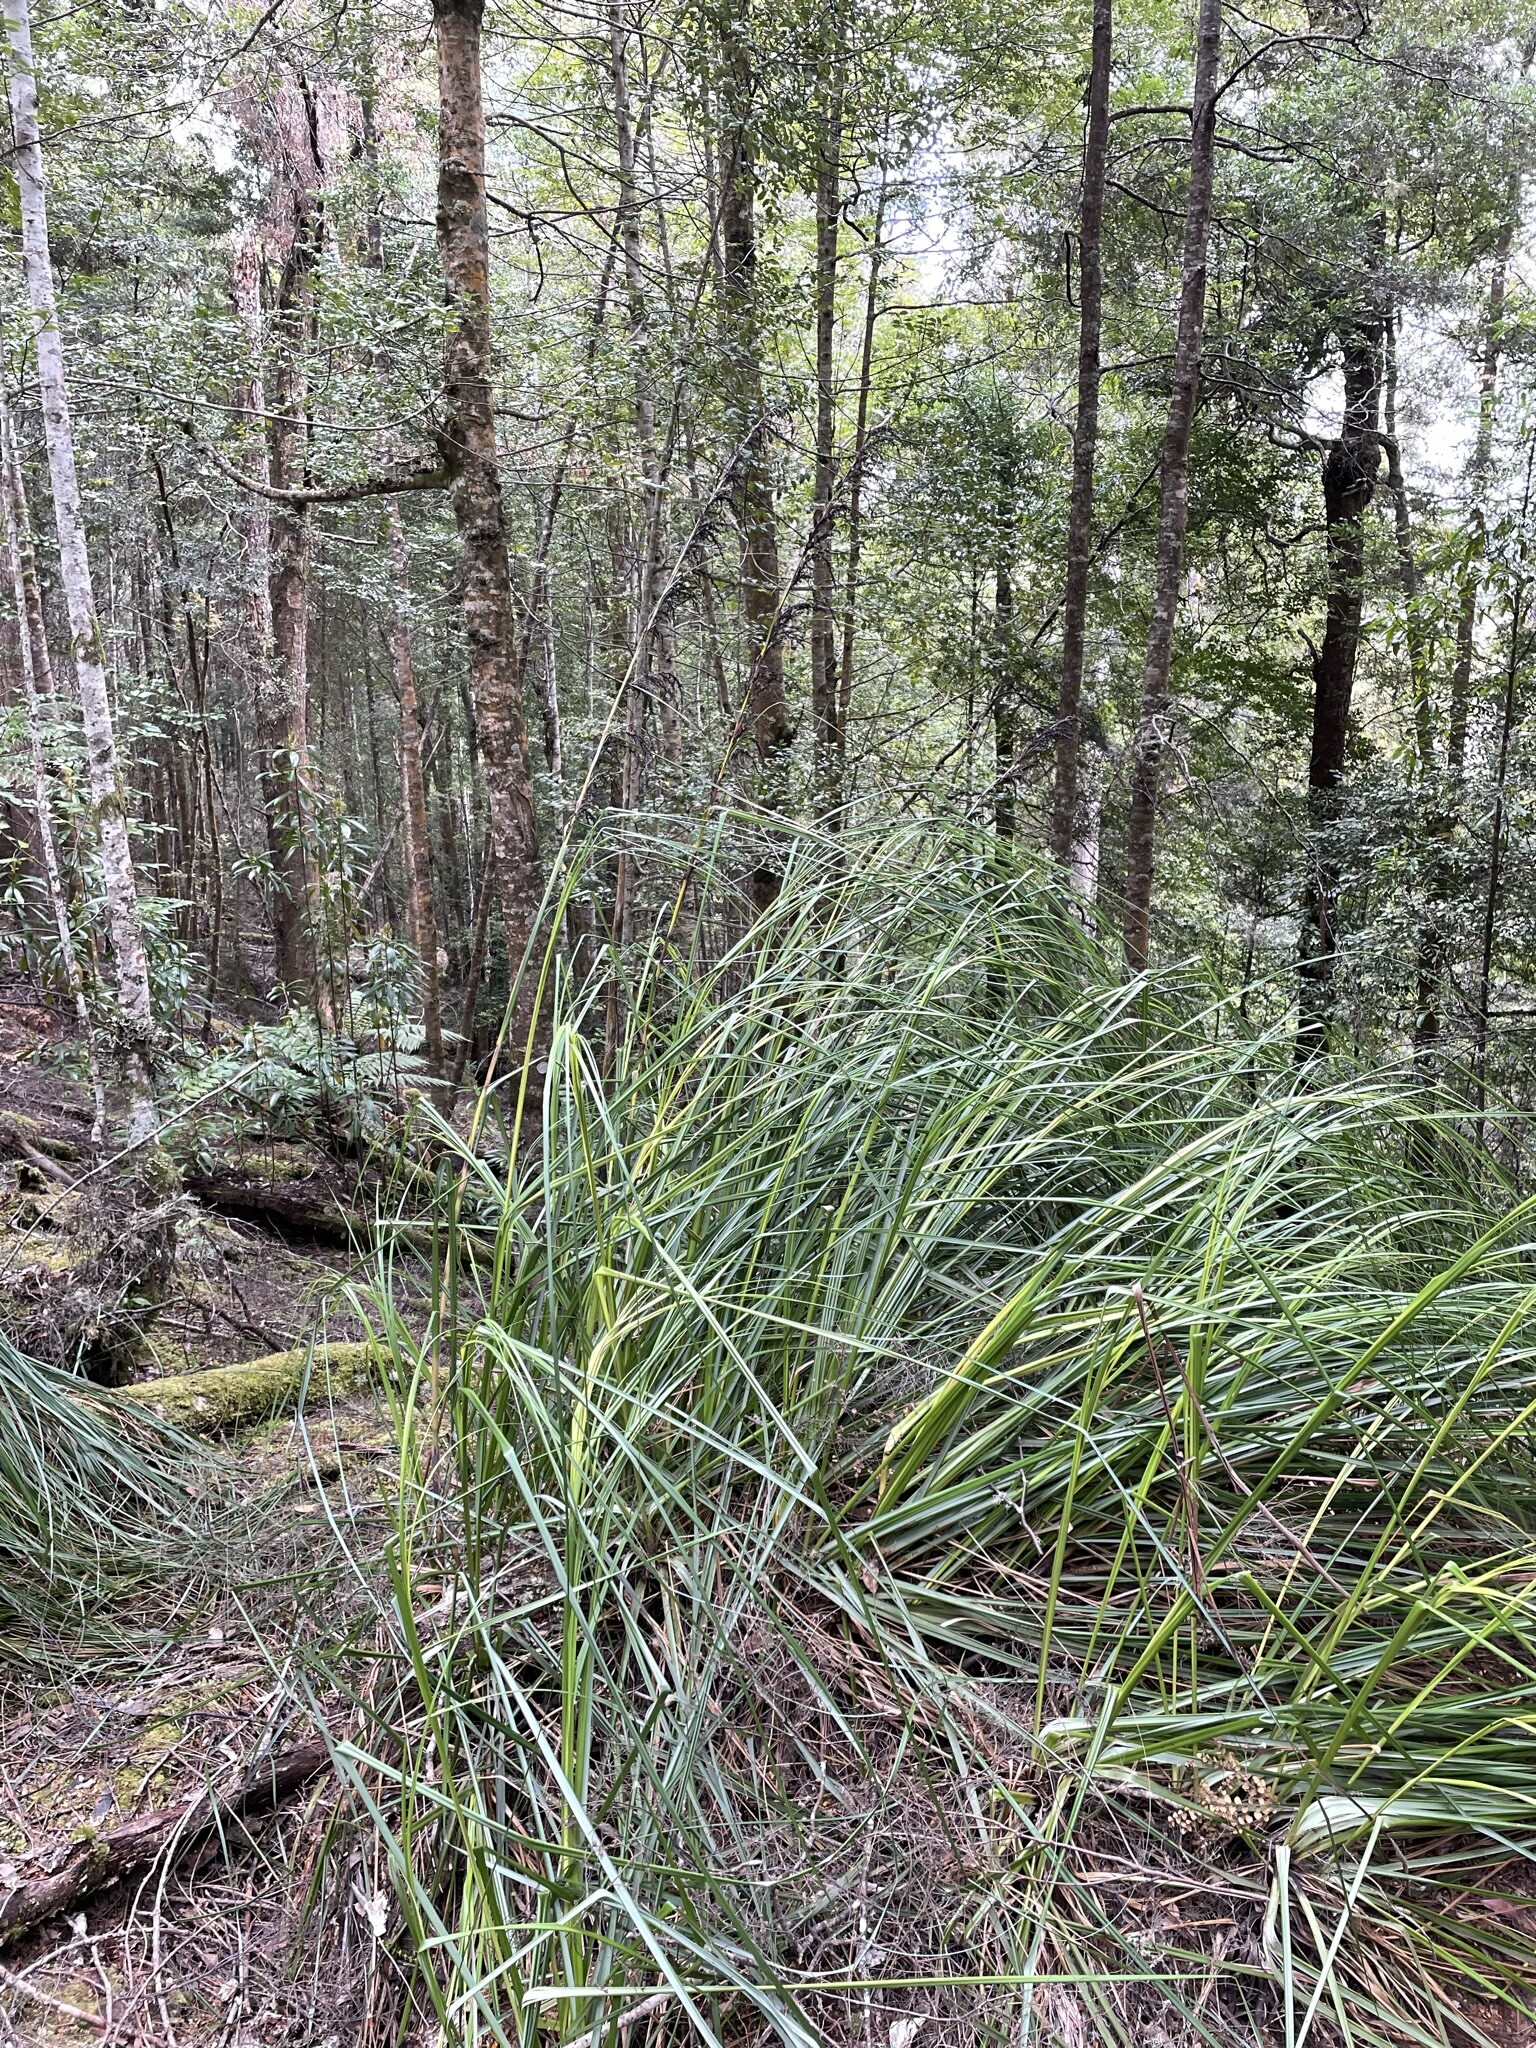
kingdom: Plantae
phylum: Tracheophyta
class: Liliopsida
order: Poales
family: Cyperaceae
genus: Gahnia
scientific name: Gahnia grandis
